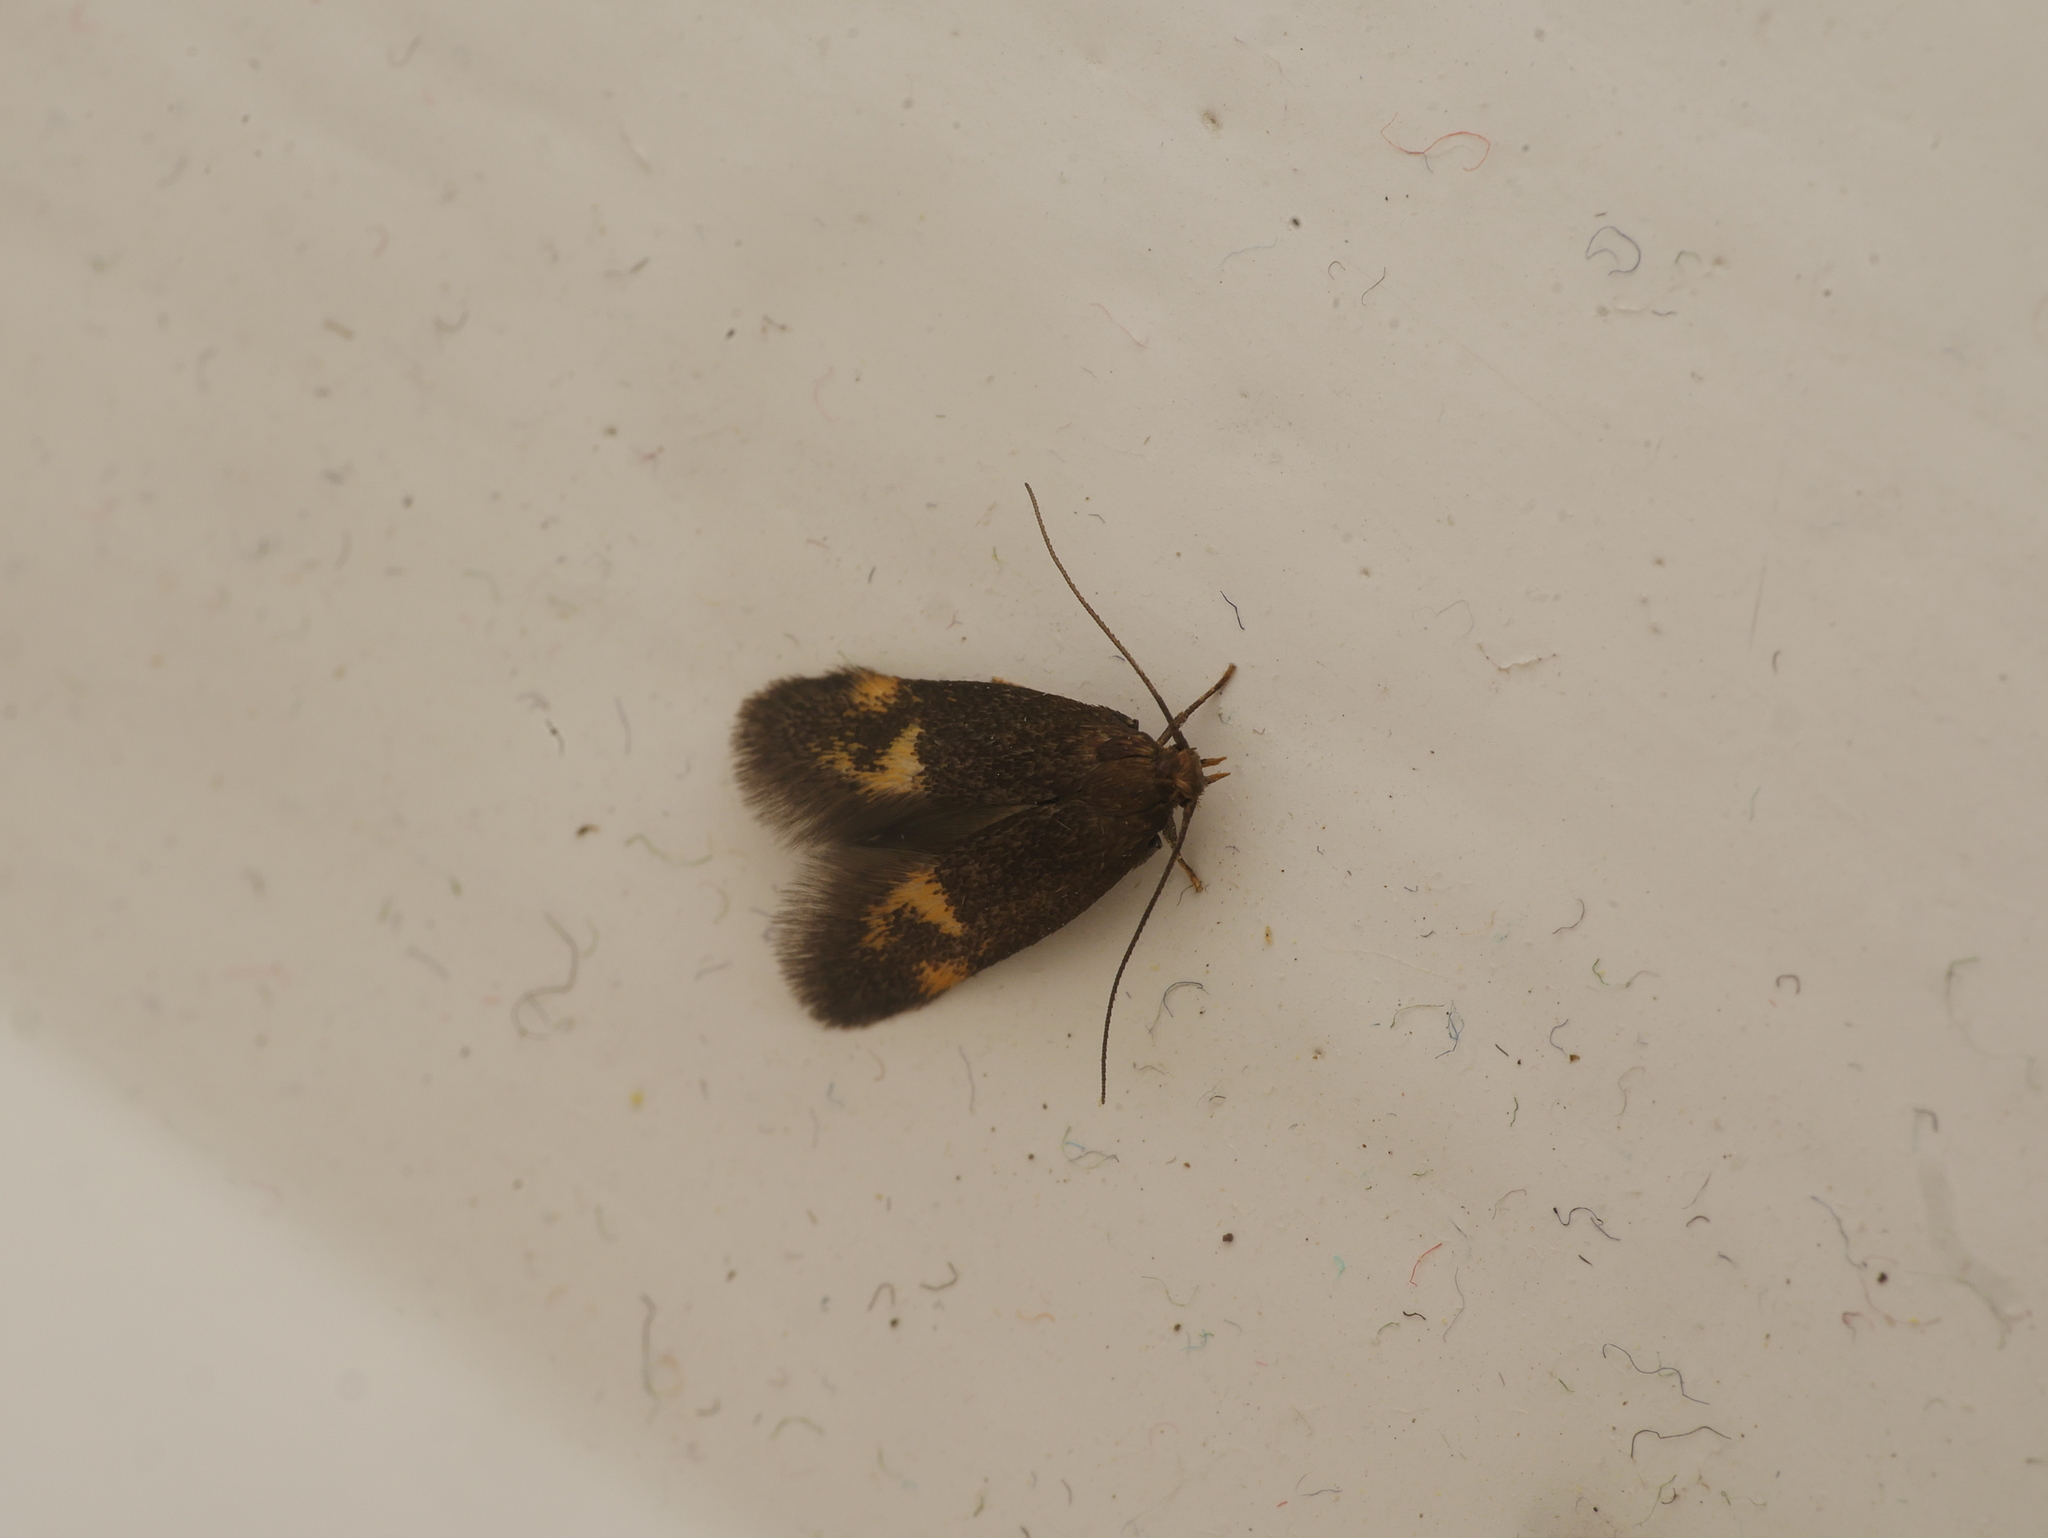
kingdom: Animalia
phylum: Arthropoda
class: Insecta
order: Lepidoptera
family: Oecophoridae
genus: Borkhausenia
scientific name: Borkhausenia minutella
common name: Thatch tubic
